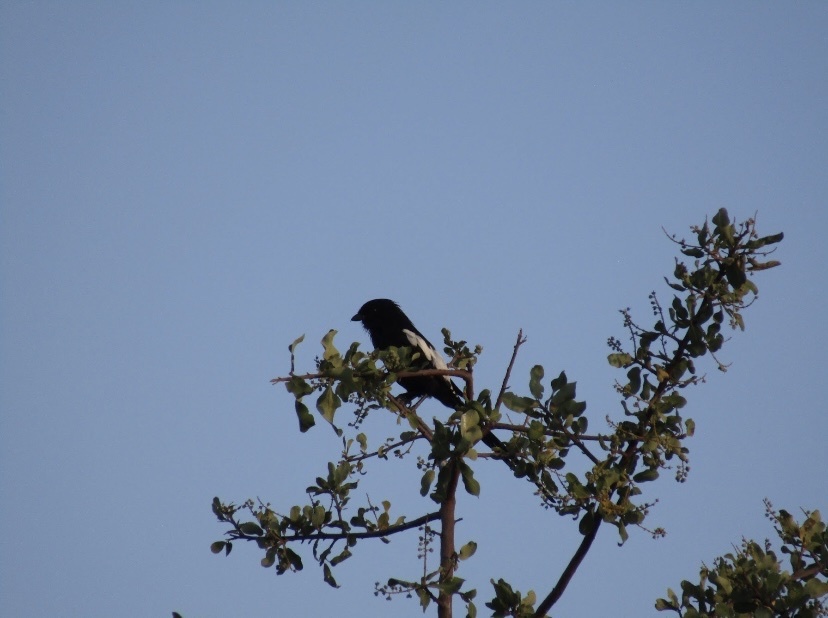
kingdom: Animalia
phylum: Chordata
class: Aves
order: Passeriformes
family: Laniidae
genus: Urolestes
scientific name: Urolestes melanoleucus
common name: Magpie shrike
